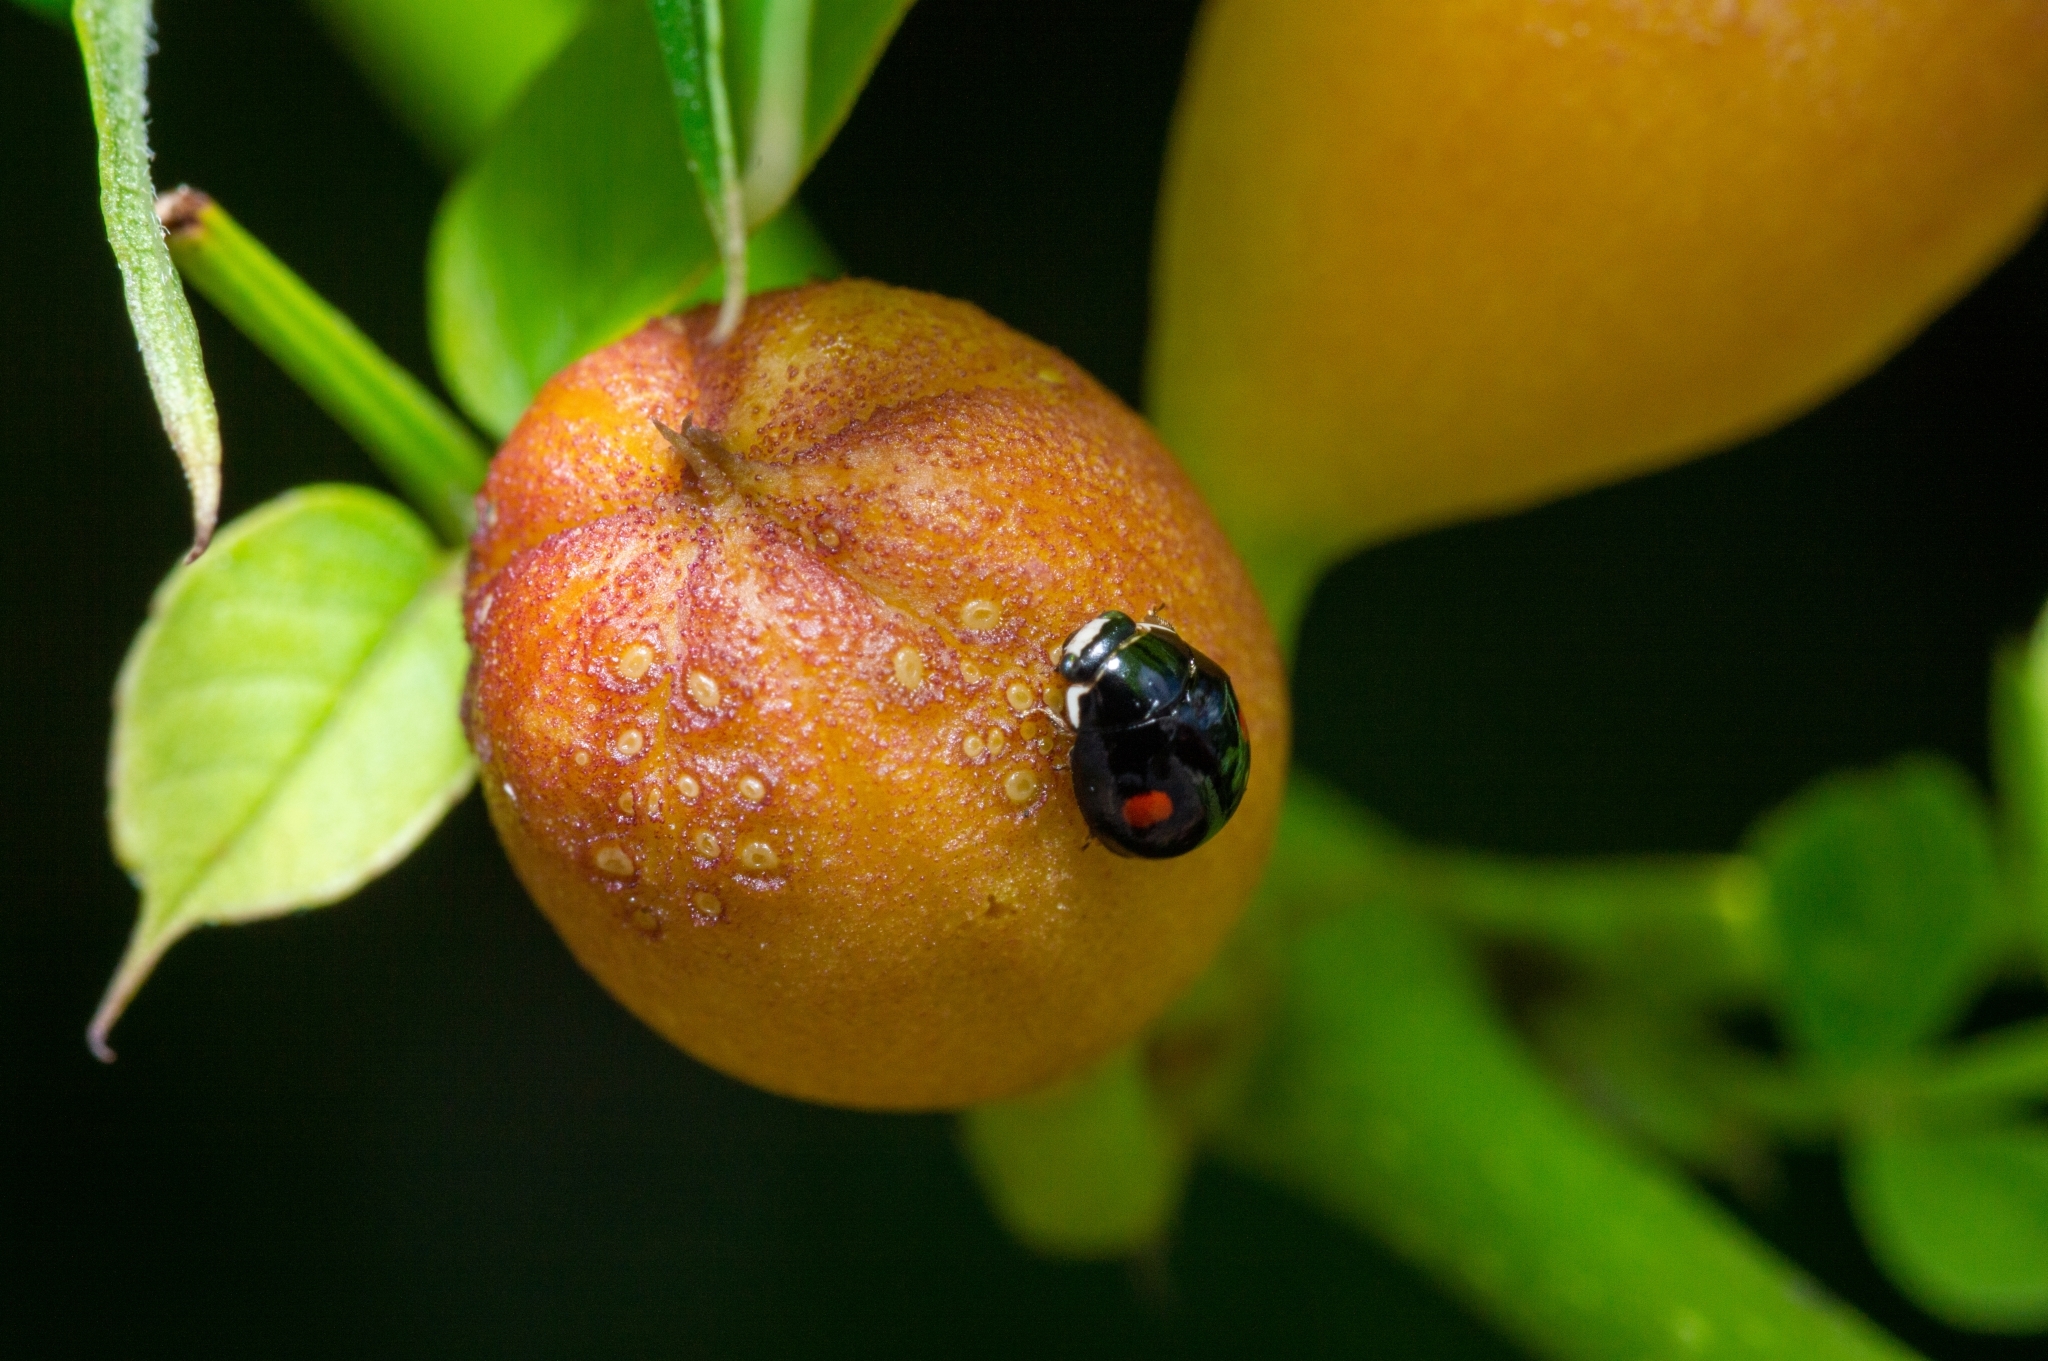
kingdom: Animalia
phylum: Arthropoda
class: Insecta
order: Coleoptera
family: Coccinellidae
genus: Hyperaspis
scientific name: Hyperaspis
